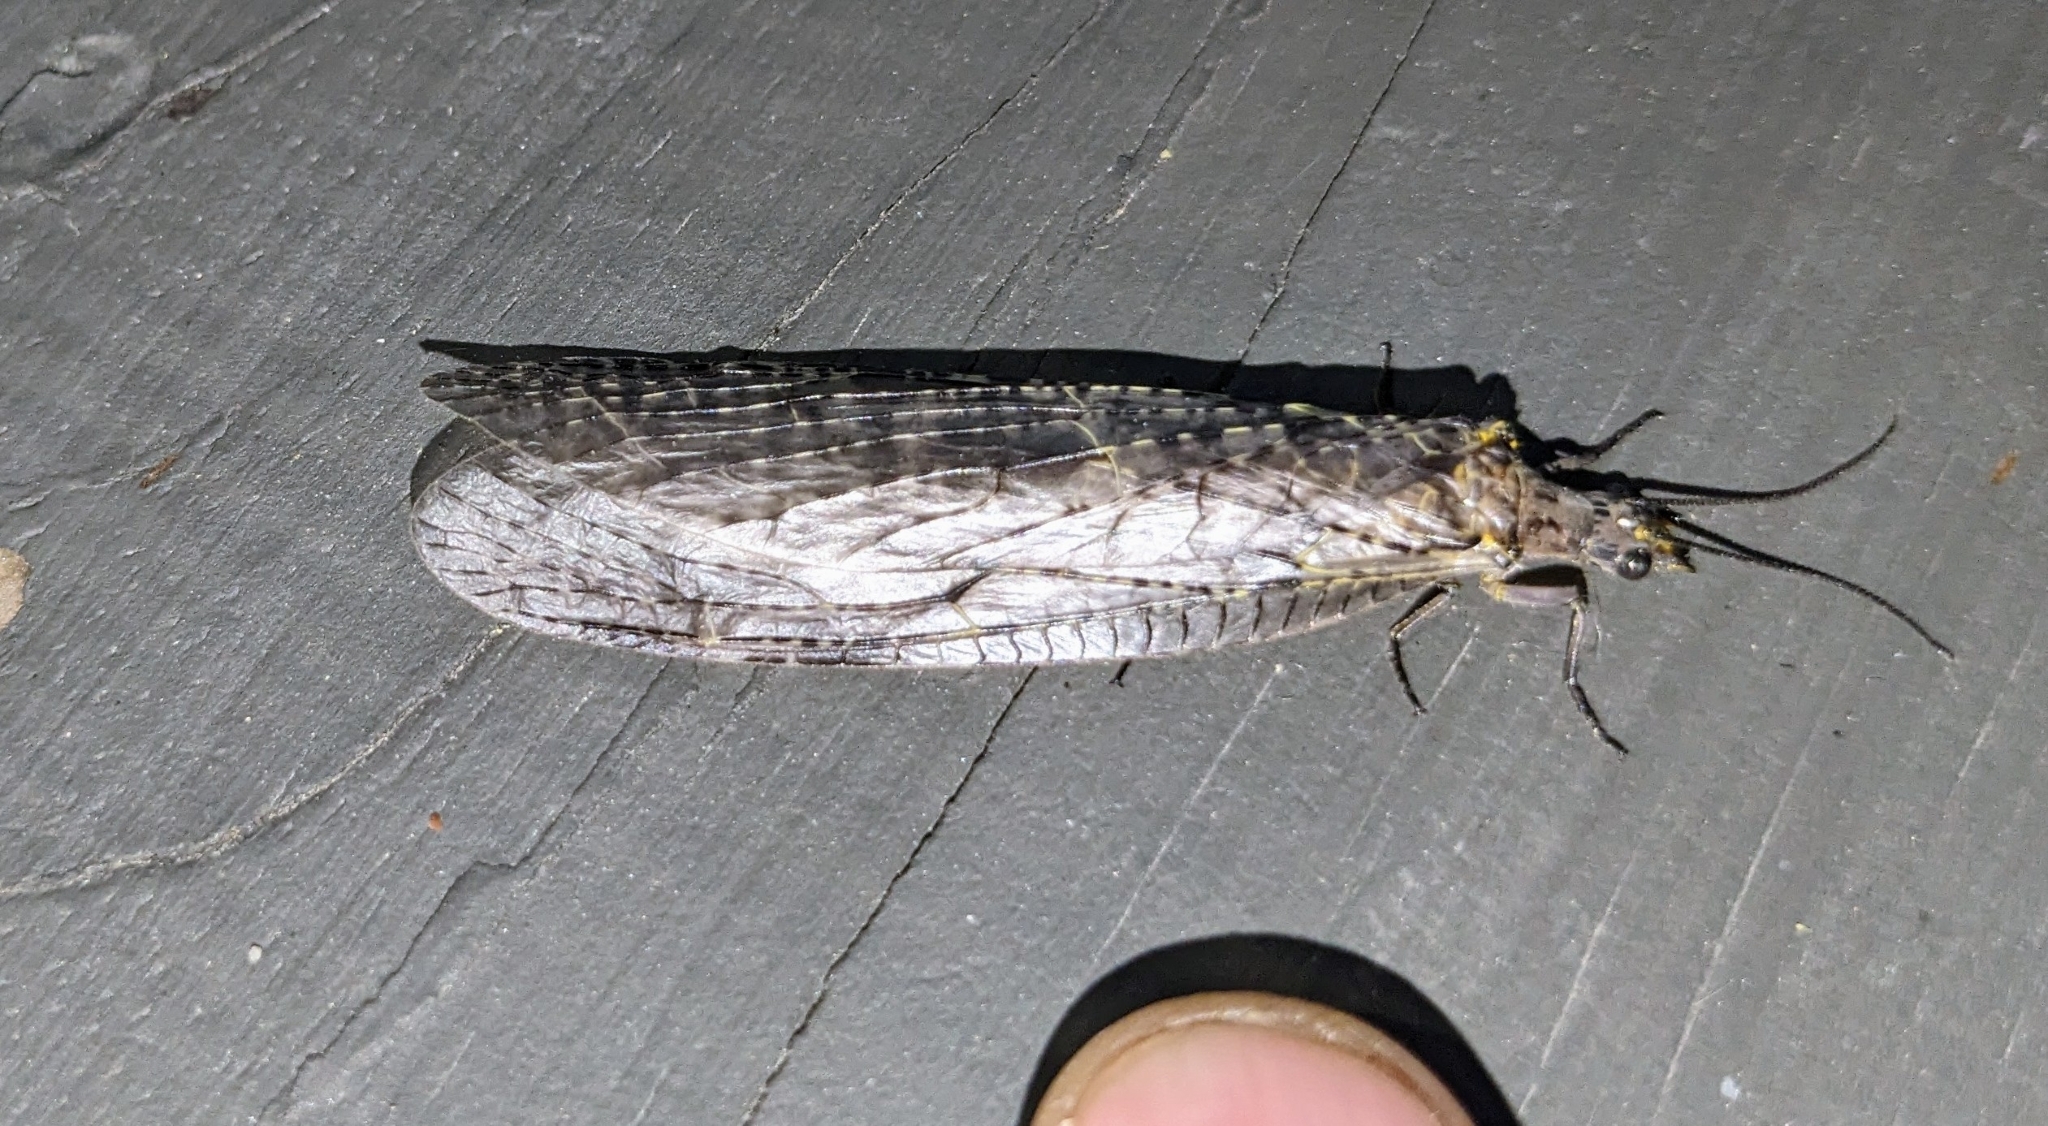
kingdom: Animalia
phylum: Arthropoda
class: Insecta
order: Megaloptera
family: Corydalidae
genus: Chauliodes
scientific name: Chauliodes rastricornis
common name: Spring fishfly
